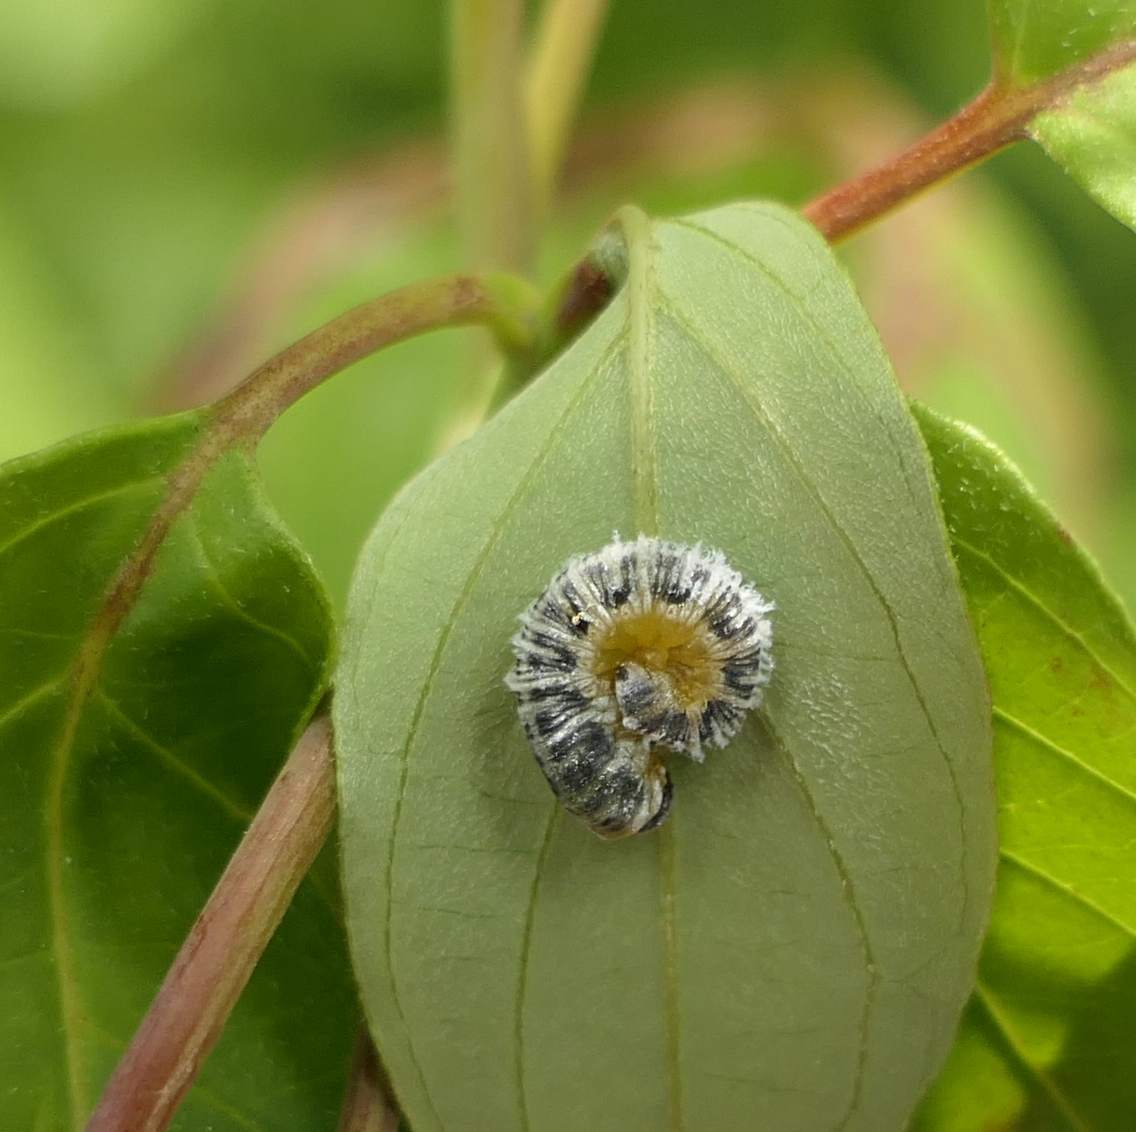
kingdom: Animalia
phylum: Arthropoda
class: Insecta
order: Hymenoptera
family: Tenthredinidae
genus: Macremphytus
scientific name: Macremphytus
